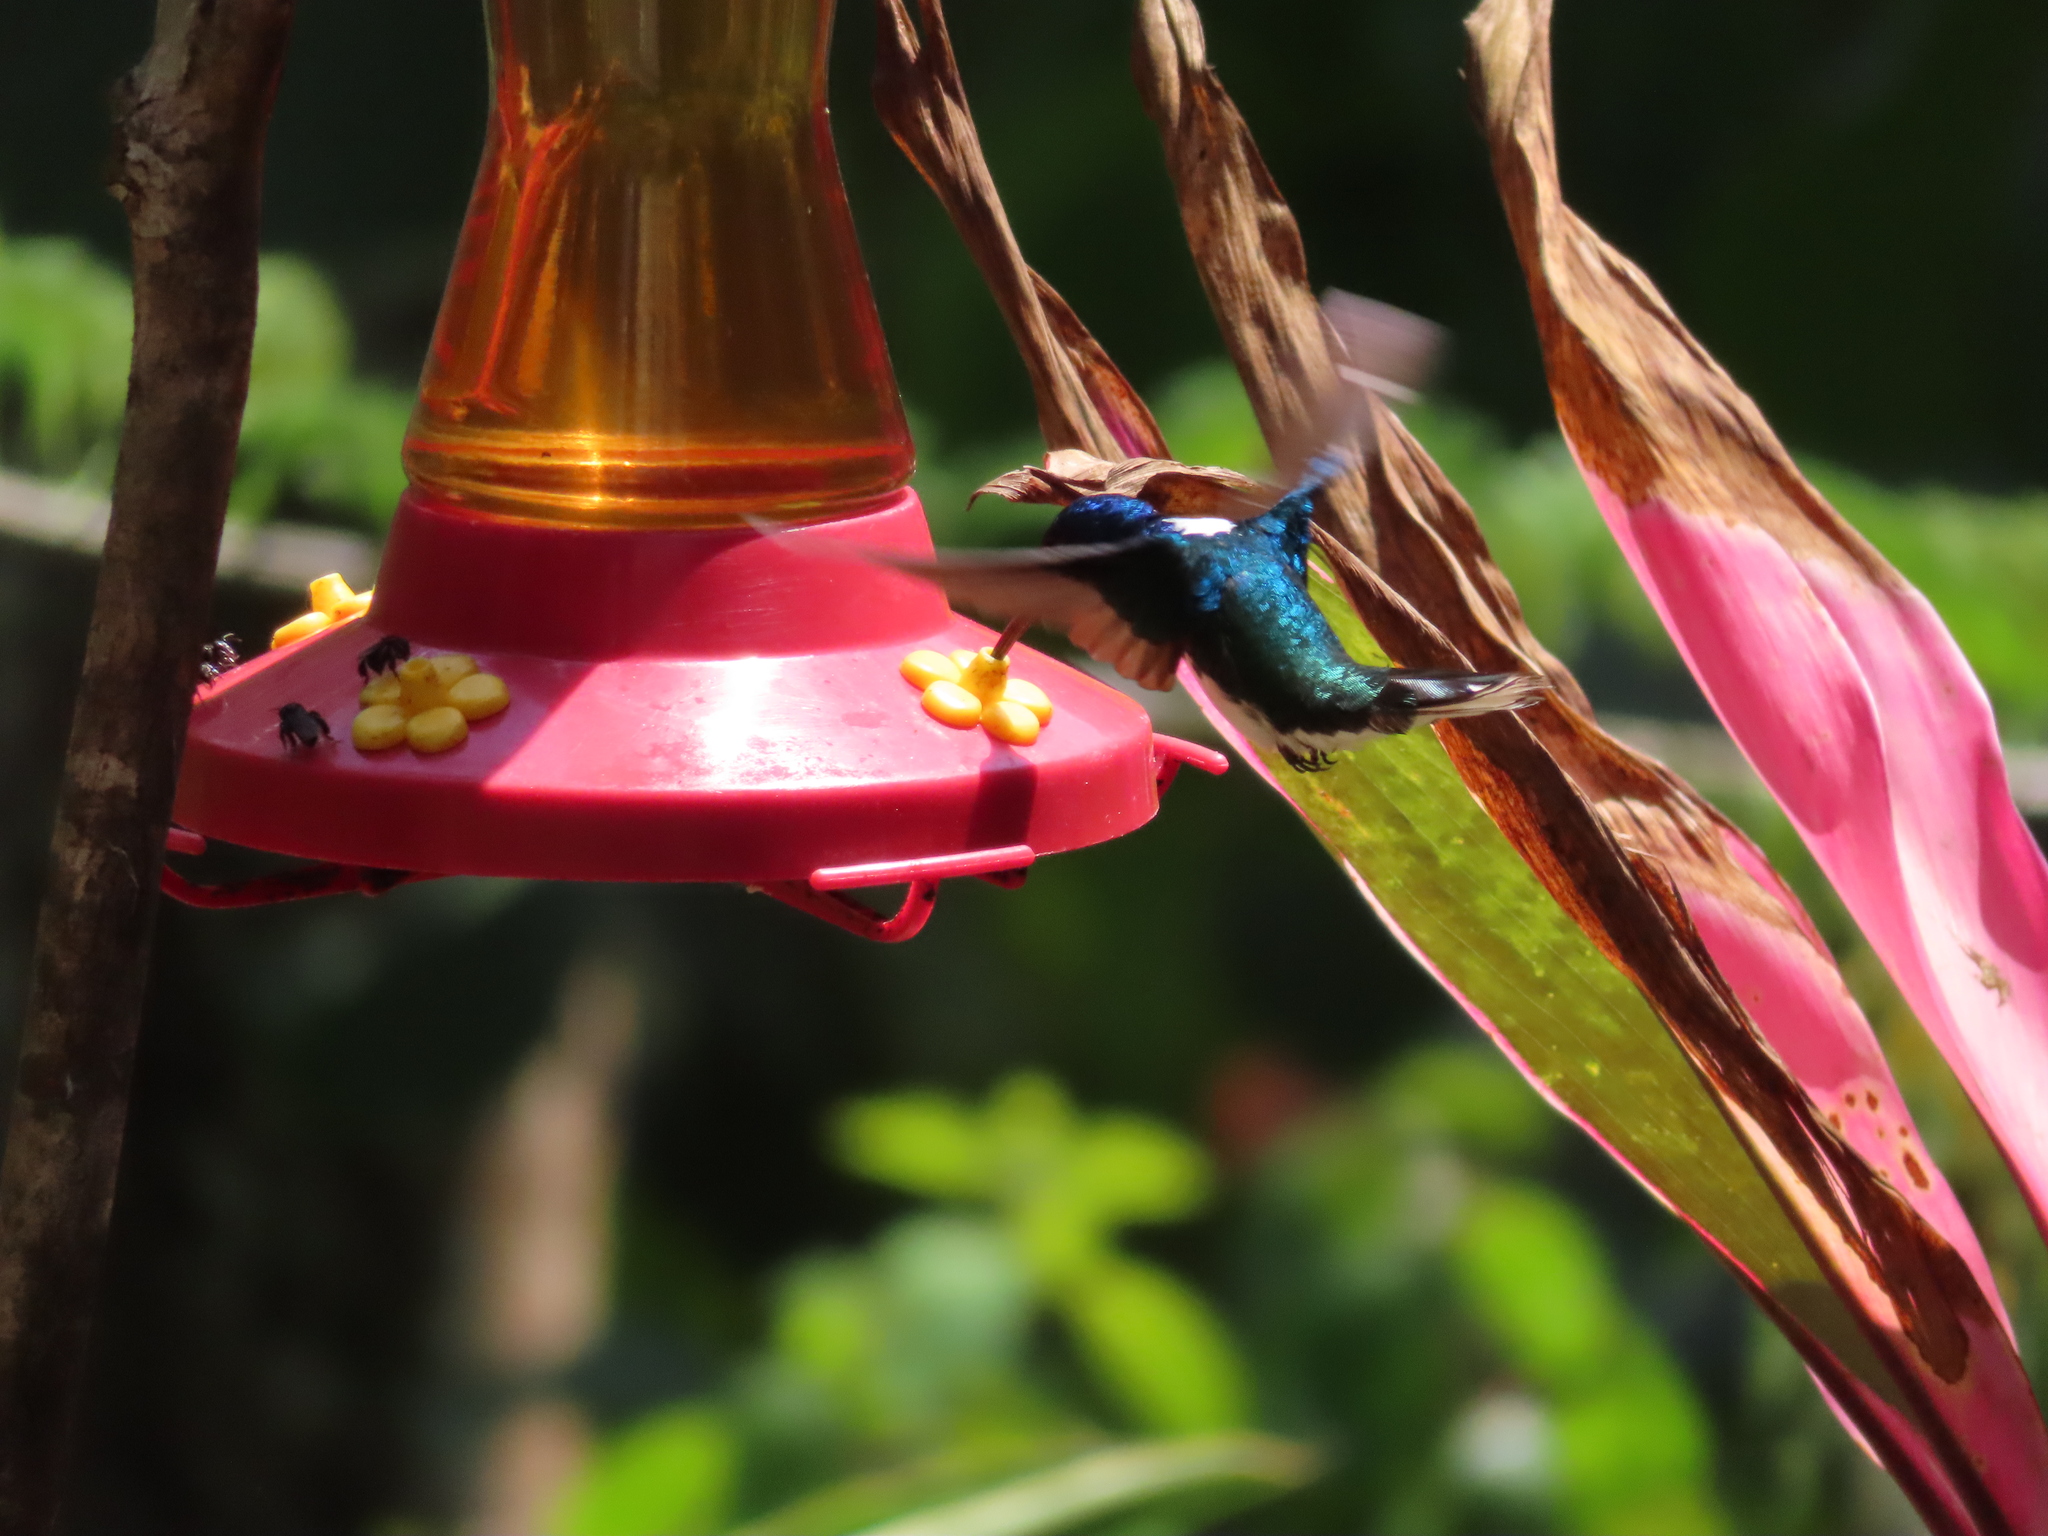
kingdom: Animalia
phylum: Chordata
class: Aves
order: Apodiformes
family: Trochilidae
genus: Florisuga
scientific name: Florisuga mellivora
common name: White-necked jacobin
